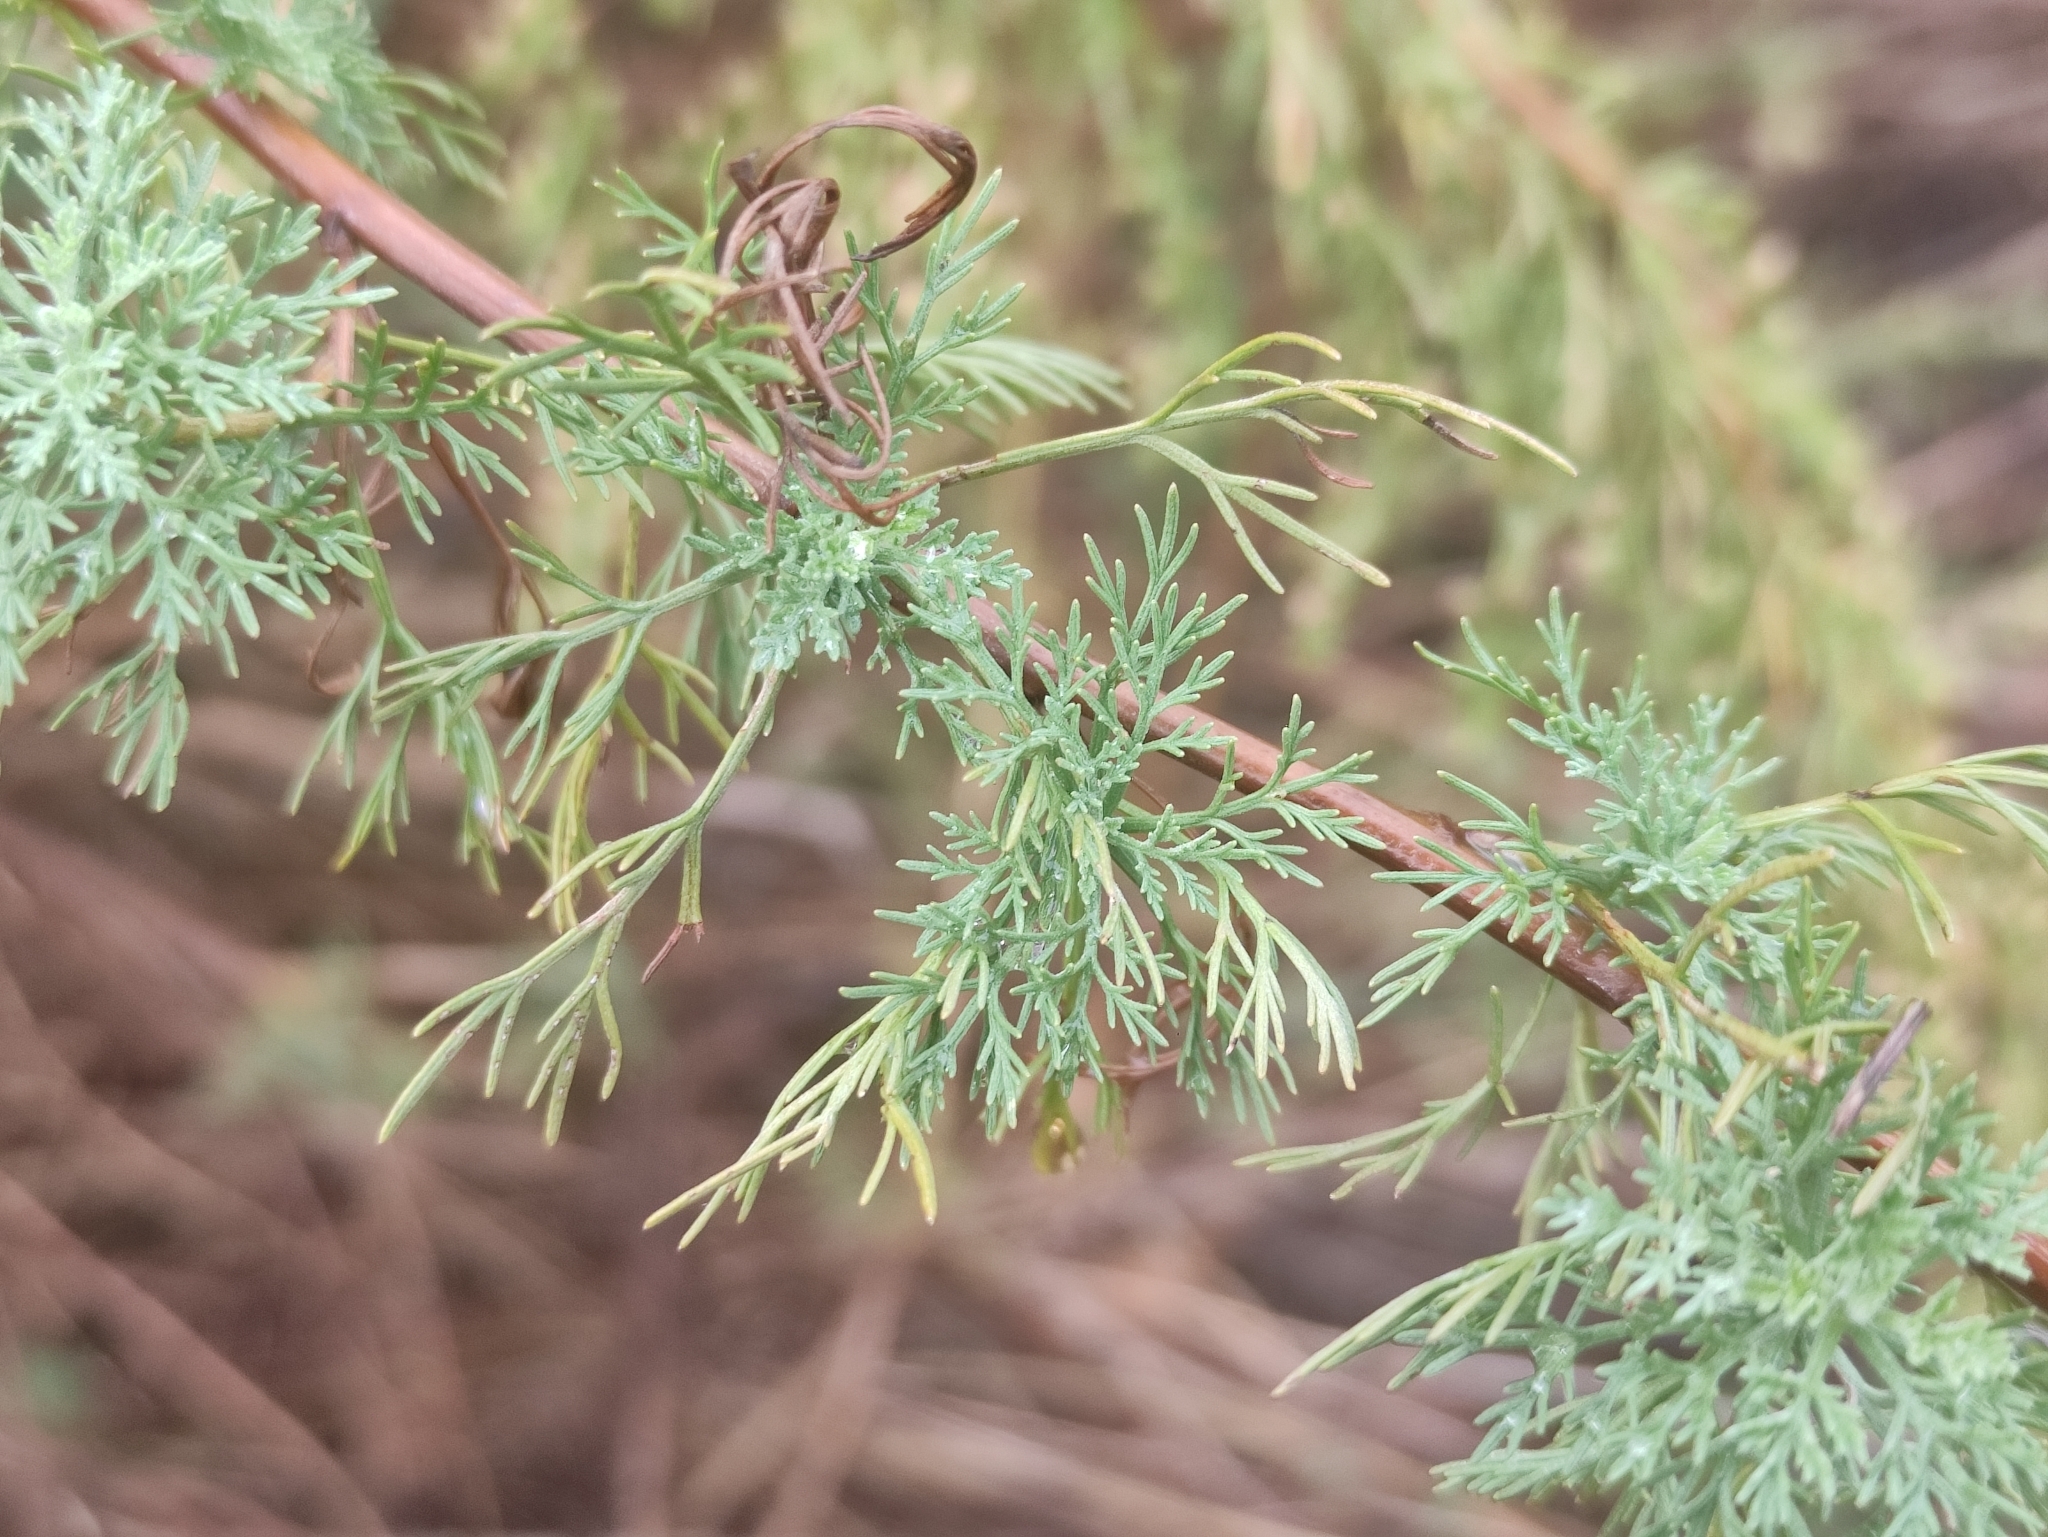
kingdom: Plantae
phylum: Tracheophyta
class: Magnoliopsida
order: Asterales
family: Asteraceae
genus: Artemisia
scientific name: Artemisia molinieri
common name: Molinier's wormwood
